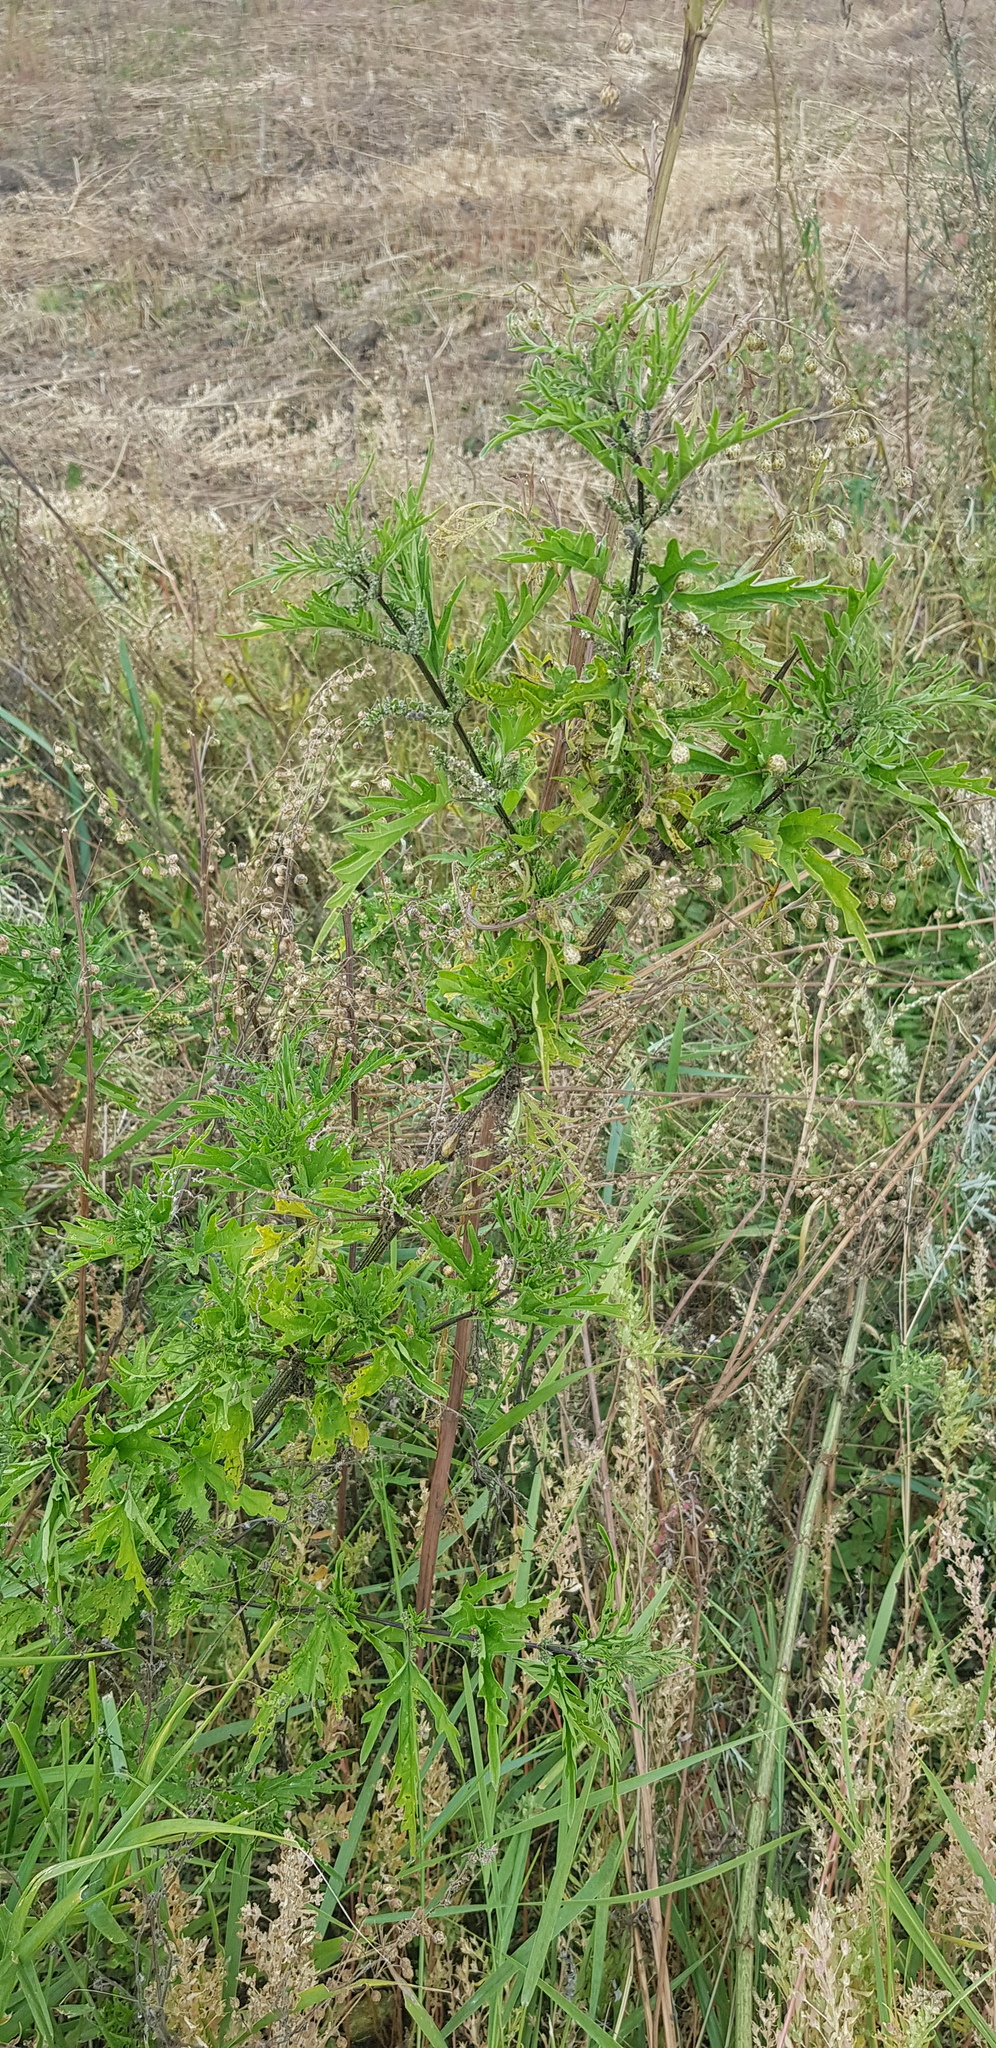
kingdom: Plantae
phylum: Tracheophyta
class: Magnoliopsida
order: Rosales
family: Urticaceae
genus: Urtica
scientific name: Urtica cannabina
